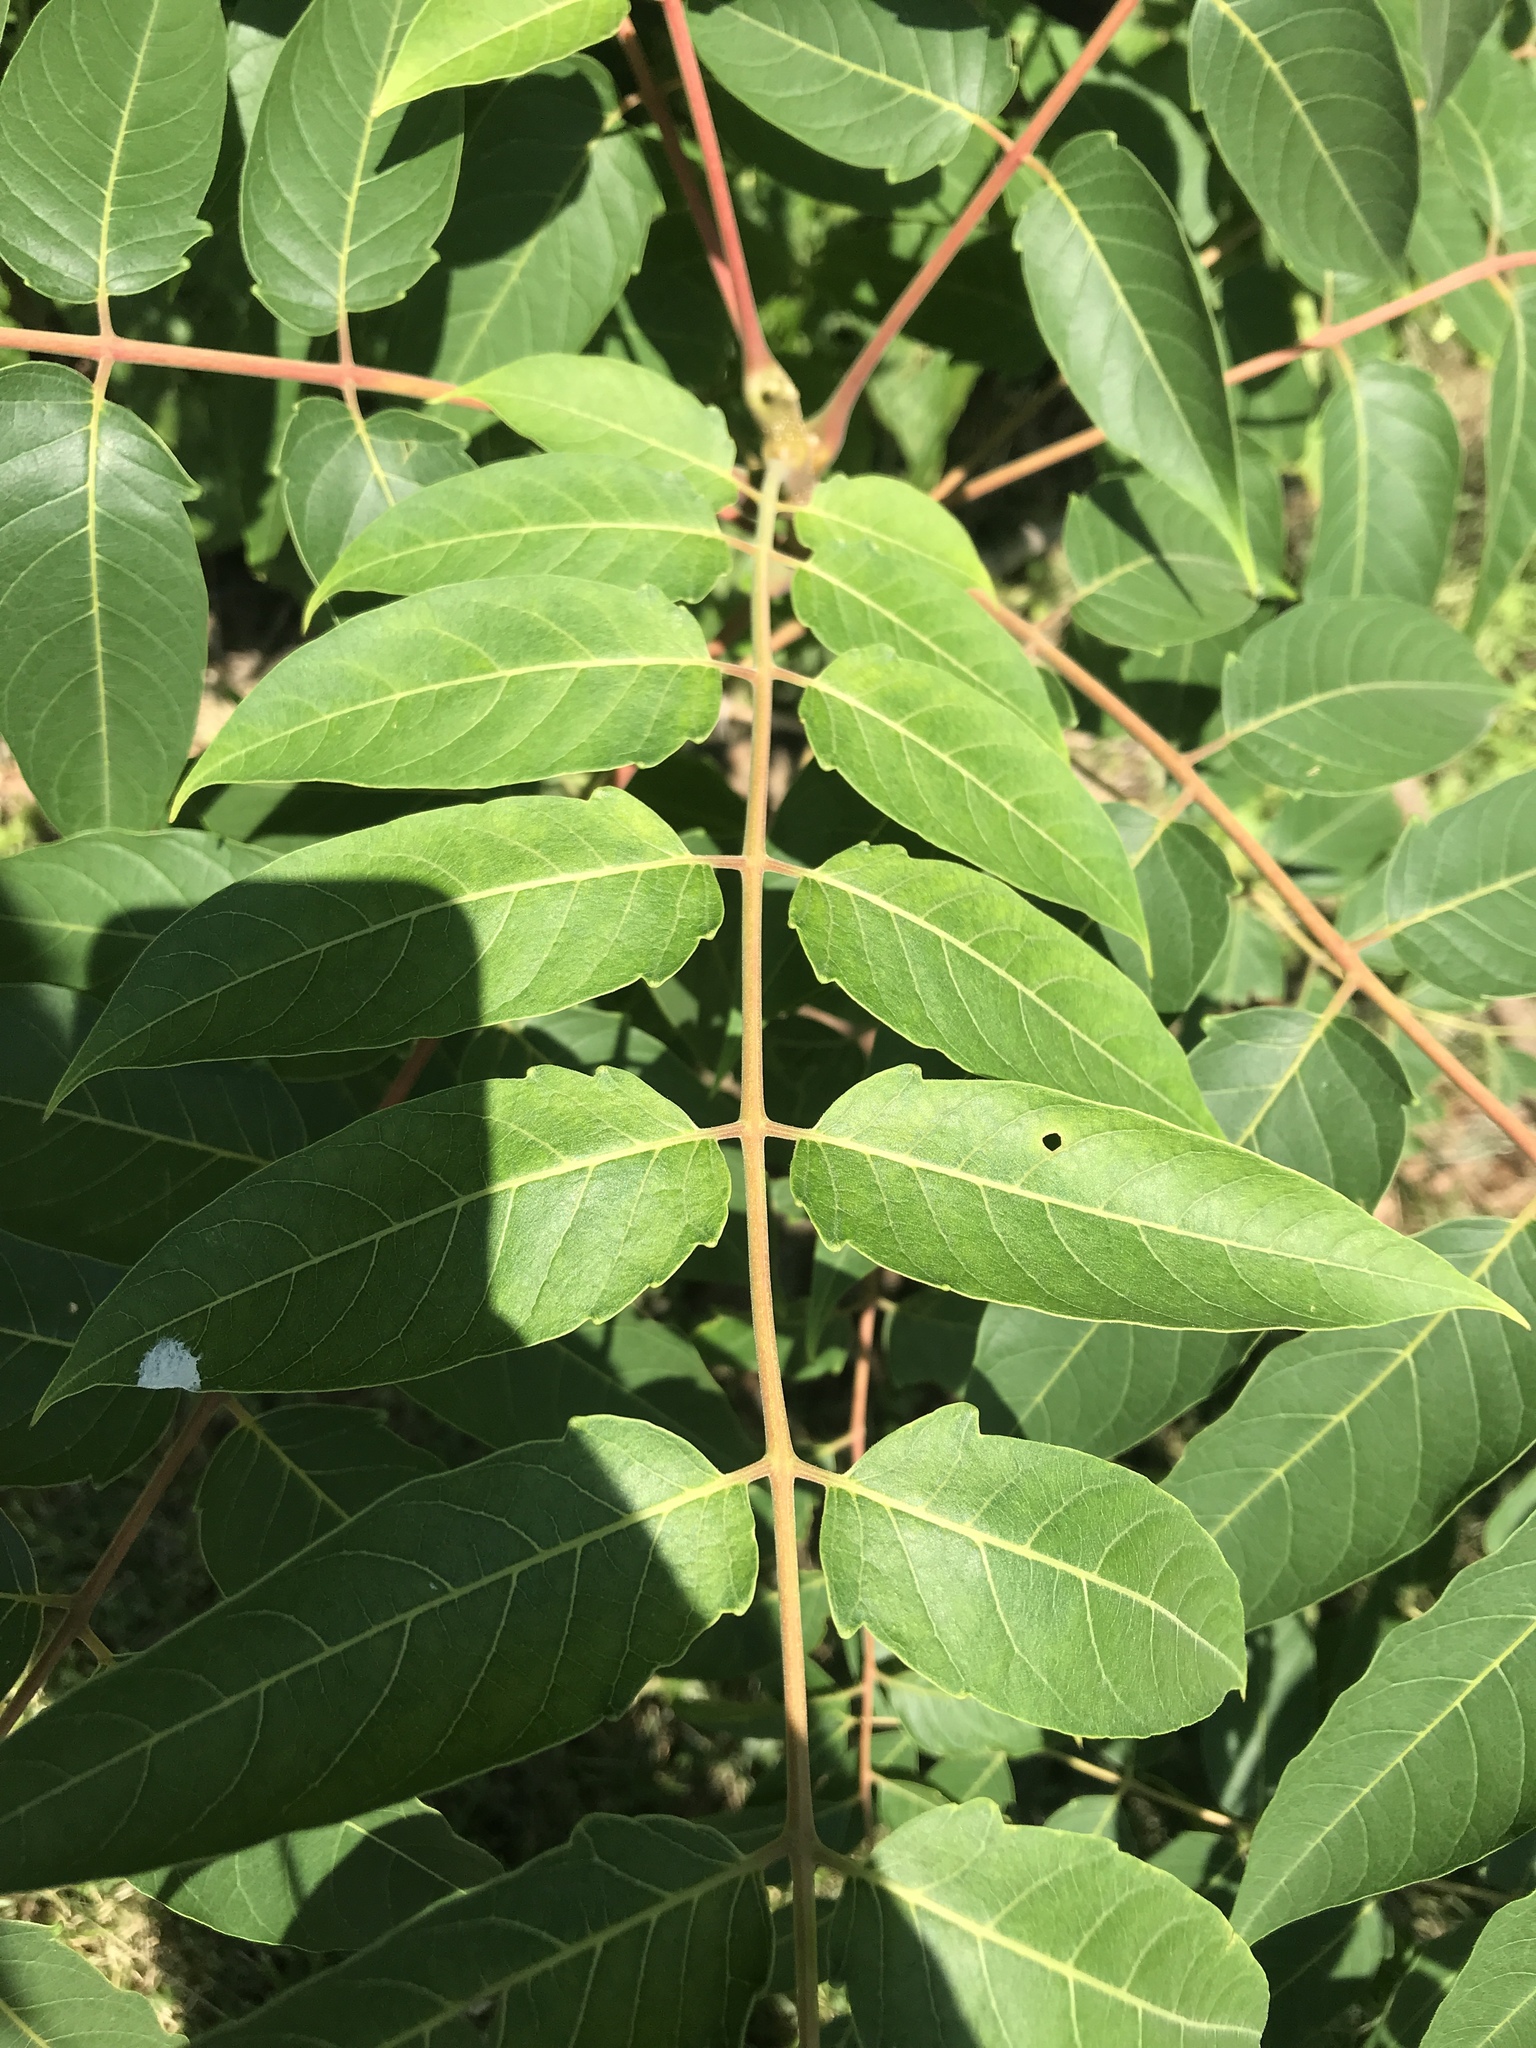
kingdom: Plantae
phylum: Tracheophyta
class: Magnoliopsida
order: Sapindales
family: Simaroubaceae
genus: Ailanthus
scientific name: Ailanthus altissima
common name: Tree-of-heaven
